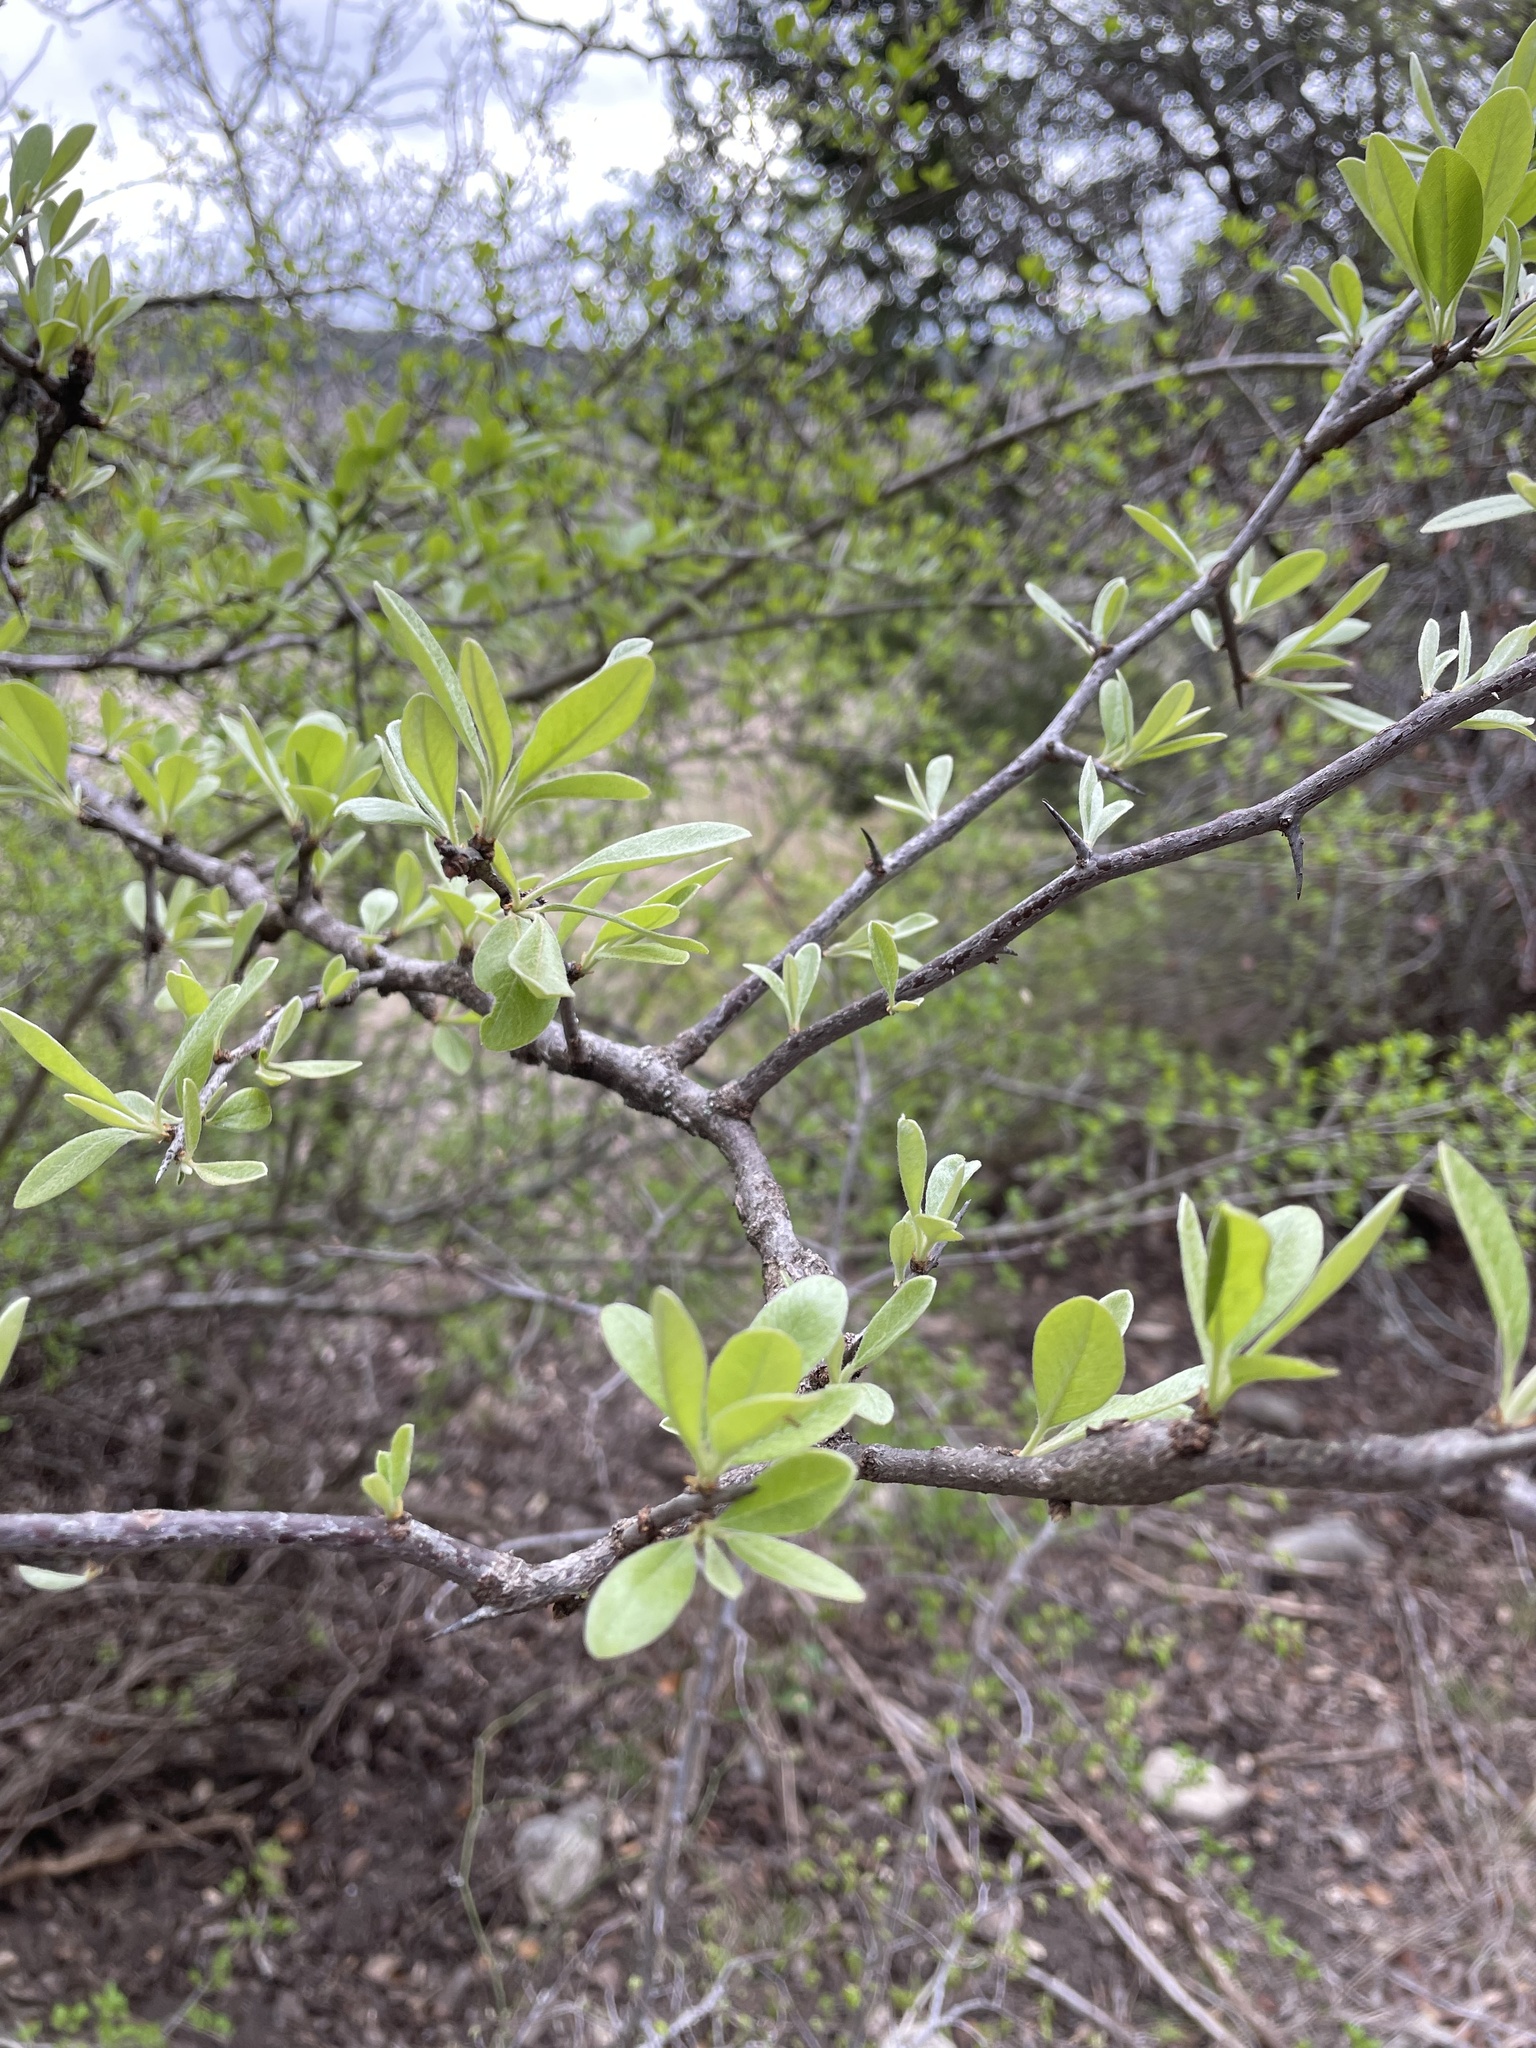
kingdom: Plantae
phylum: Tracheophyta
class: Magnoliopsida
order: Ericales
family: Sapotaceae
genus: Sideroxylon
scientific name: Sideroxylon lanuginosum
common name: Chittamwood
